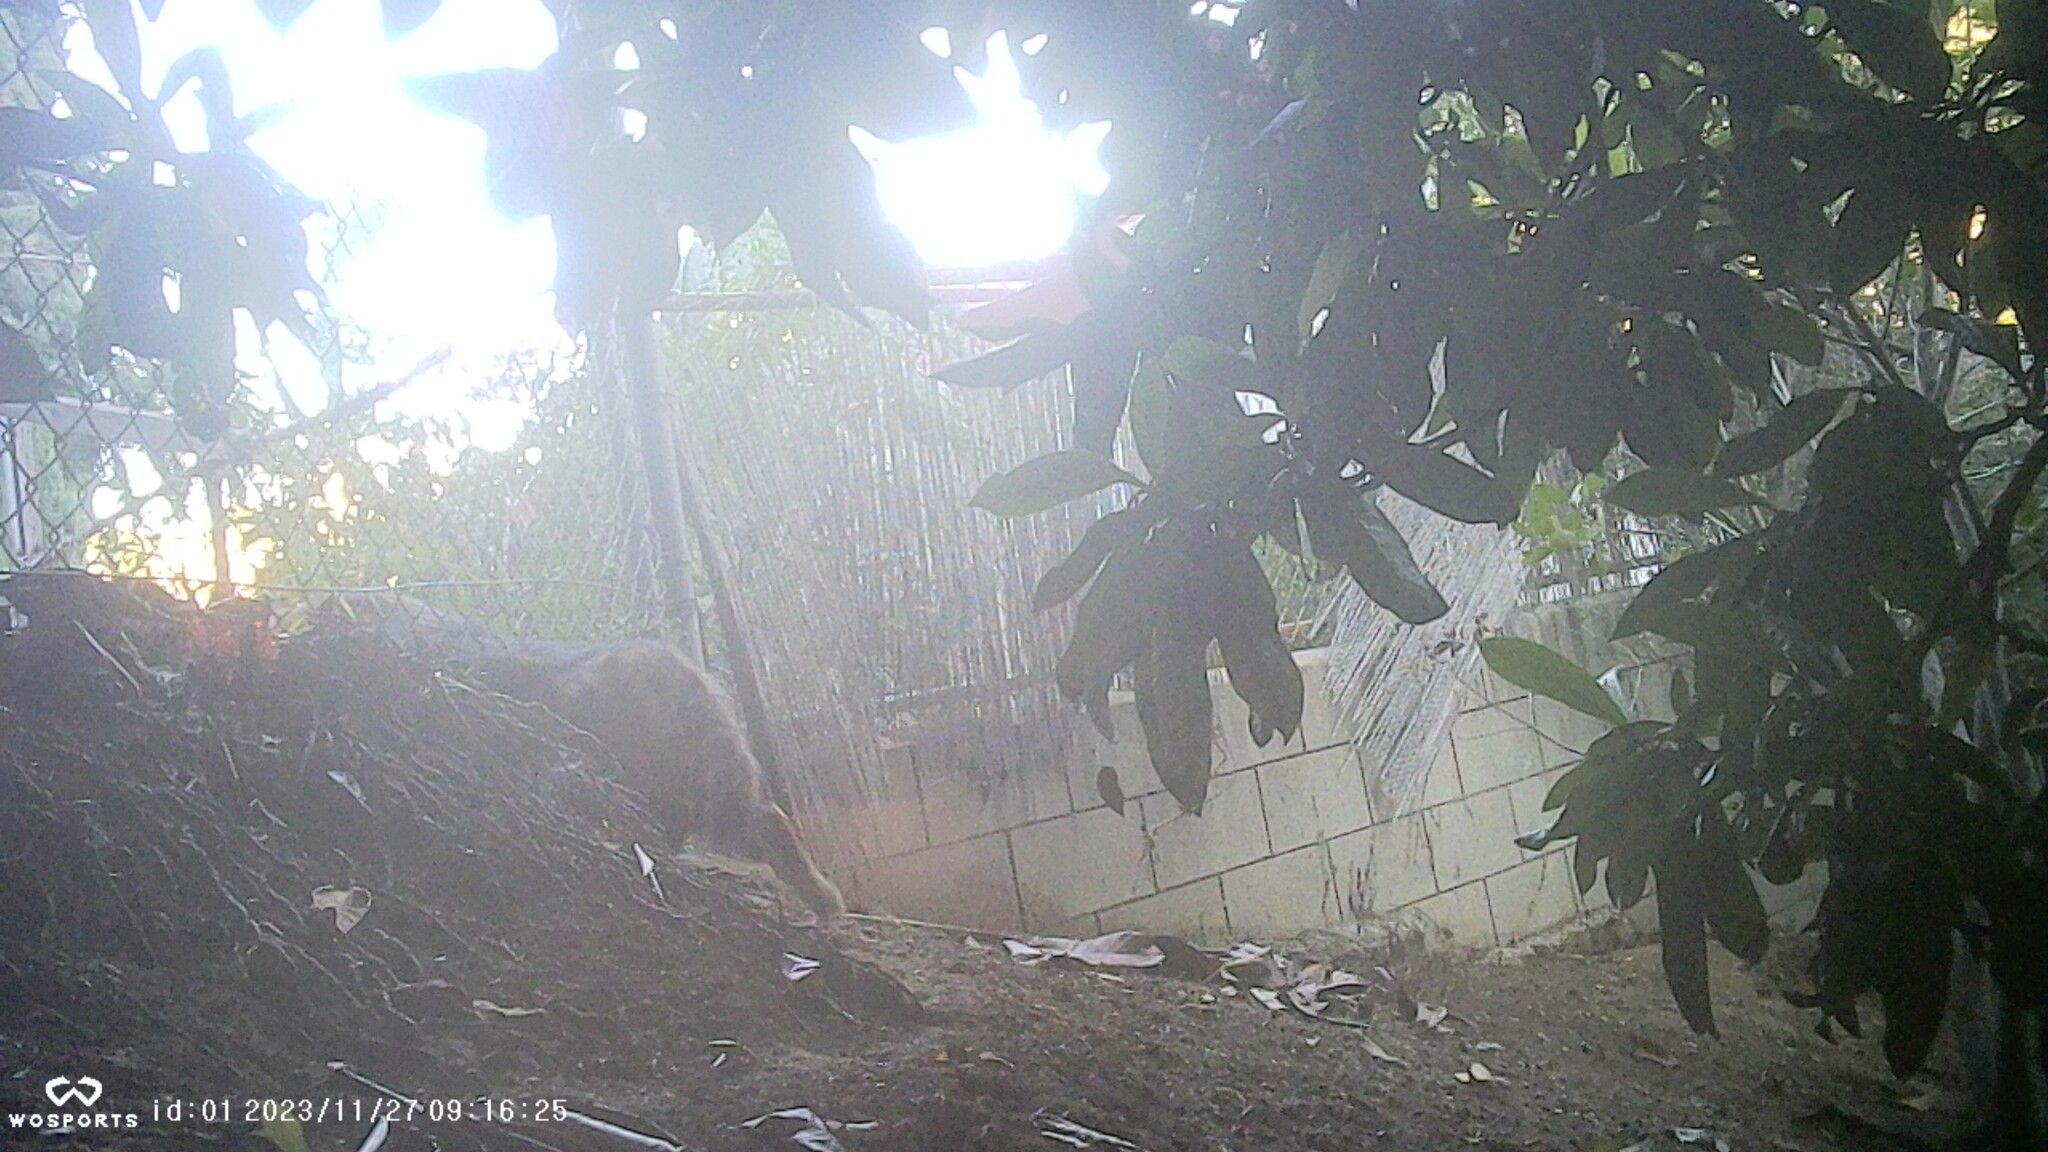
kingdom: Animalia
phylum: Chordata
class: Mammalia
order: Carnivora
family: Canidae
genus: Canis
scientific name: Canis latrans
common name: Coyote
